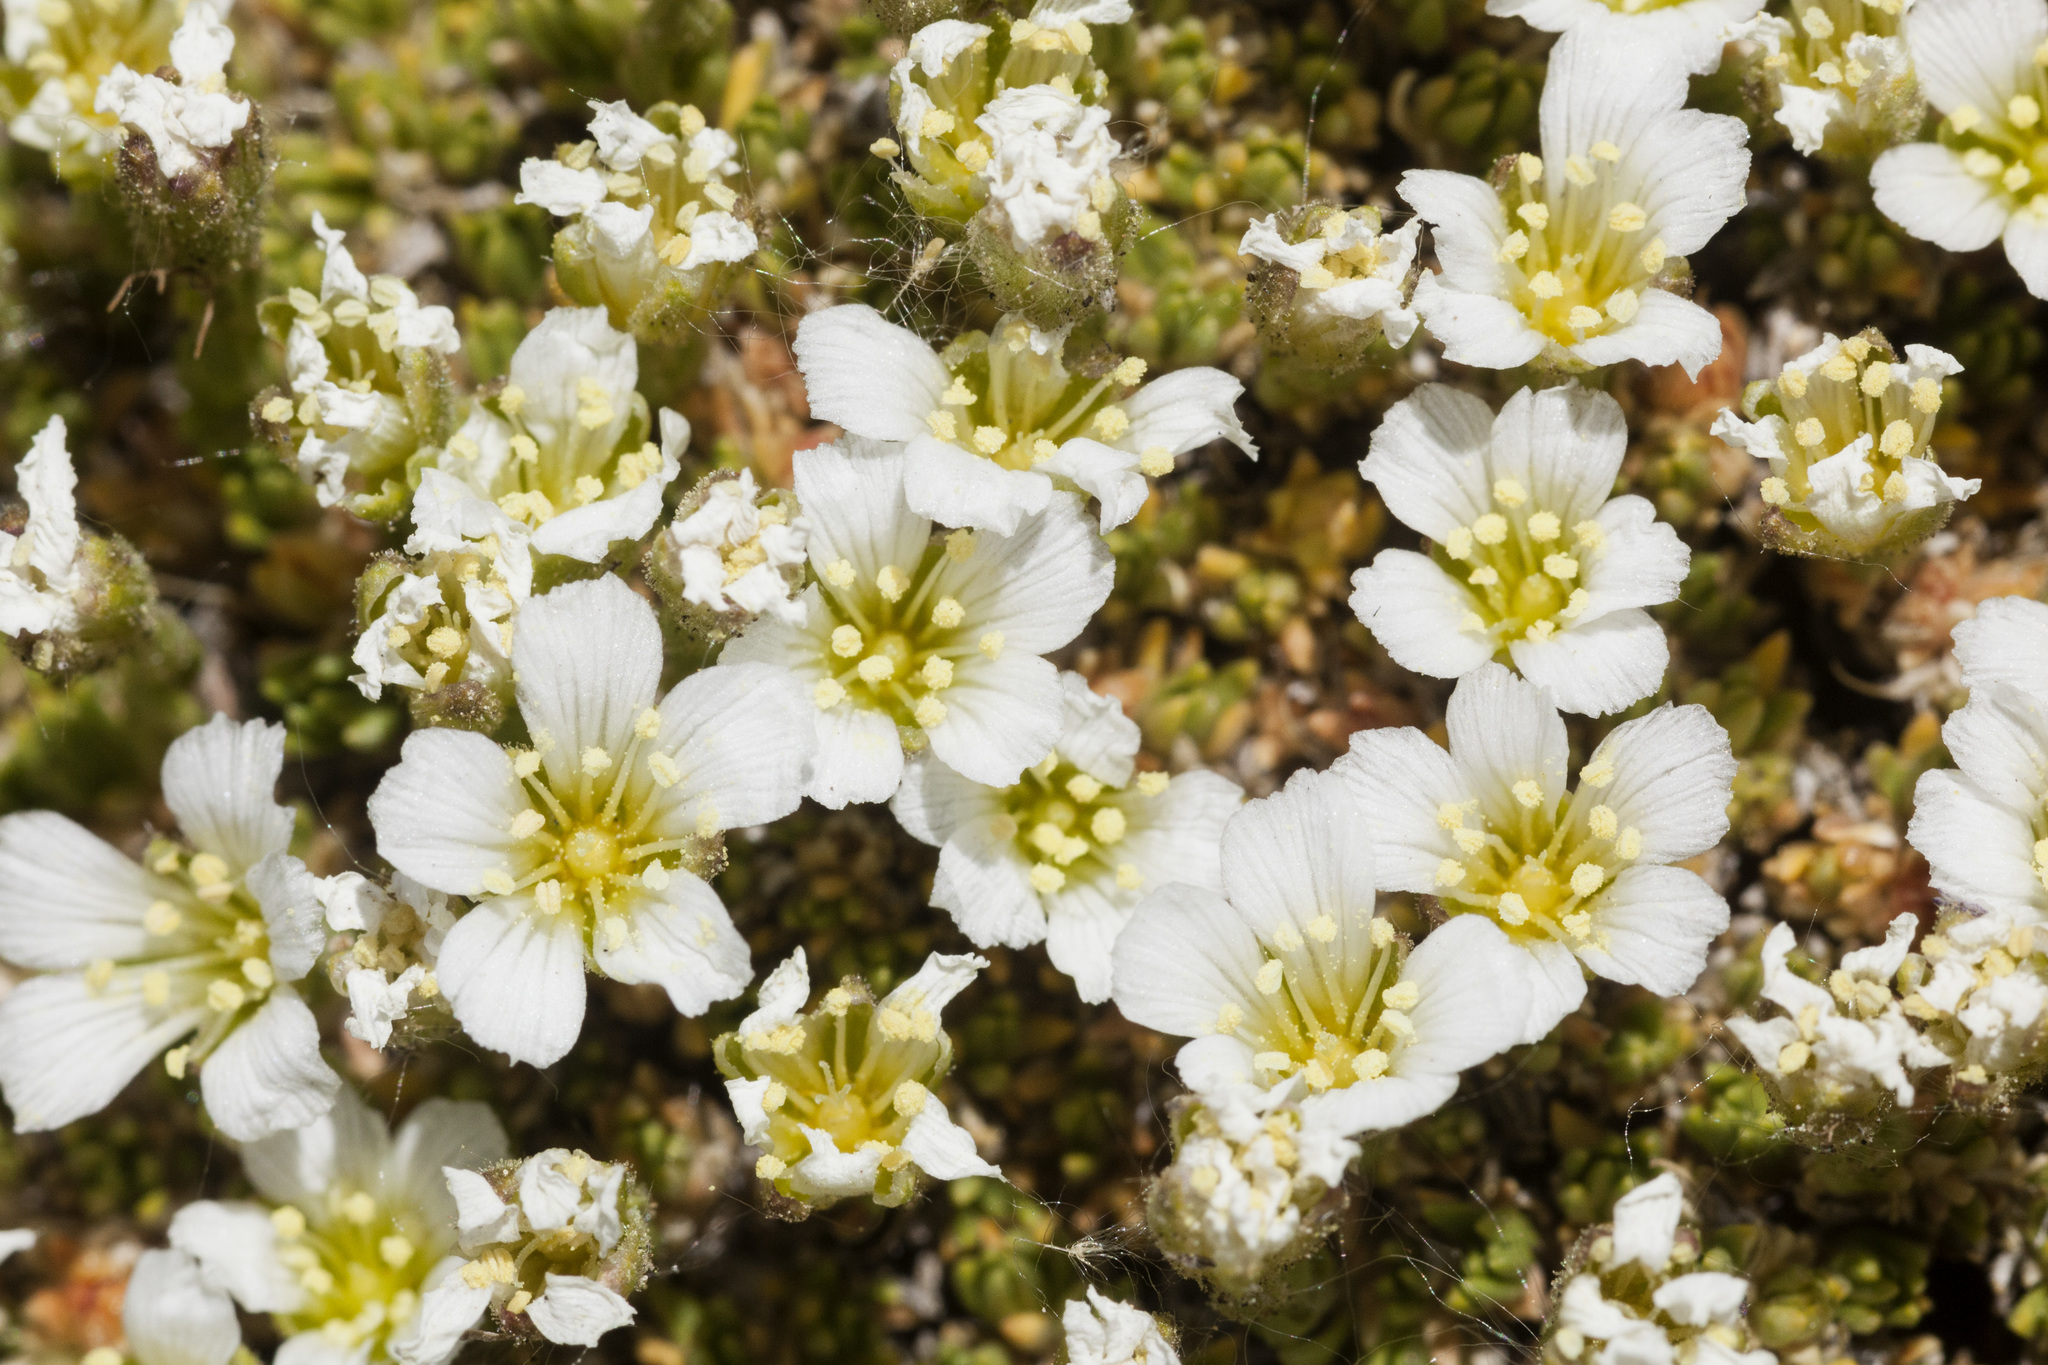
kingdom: Plantae
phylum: Tracheophyta
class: Magnoliopsida
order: Caryophyllales
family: Caryophyllaceae
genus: Cherleria
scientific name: Cherleria obtusiloba
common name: Alpine stitchwort
